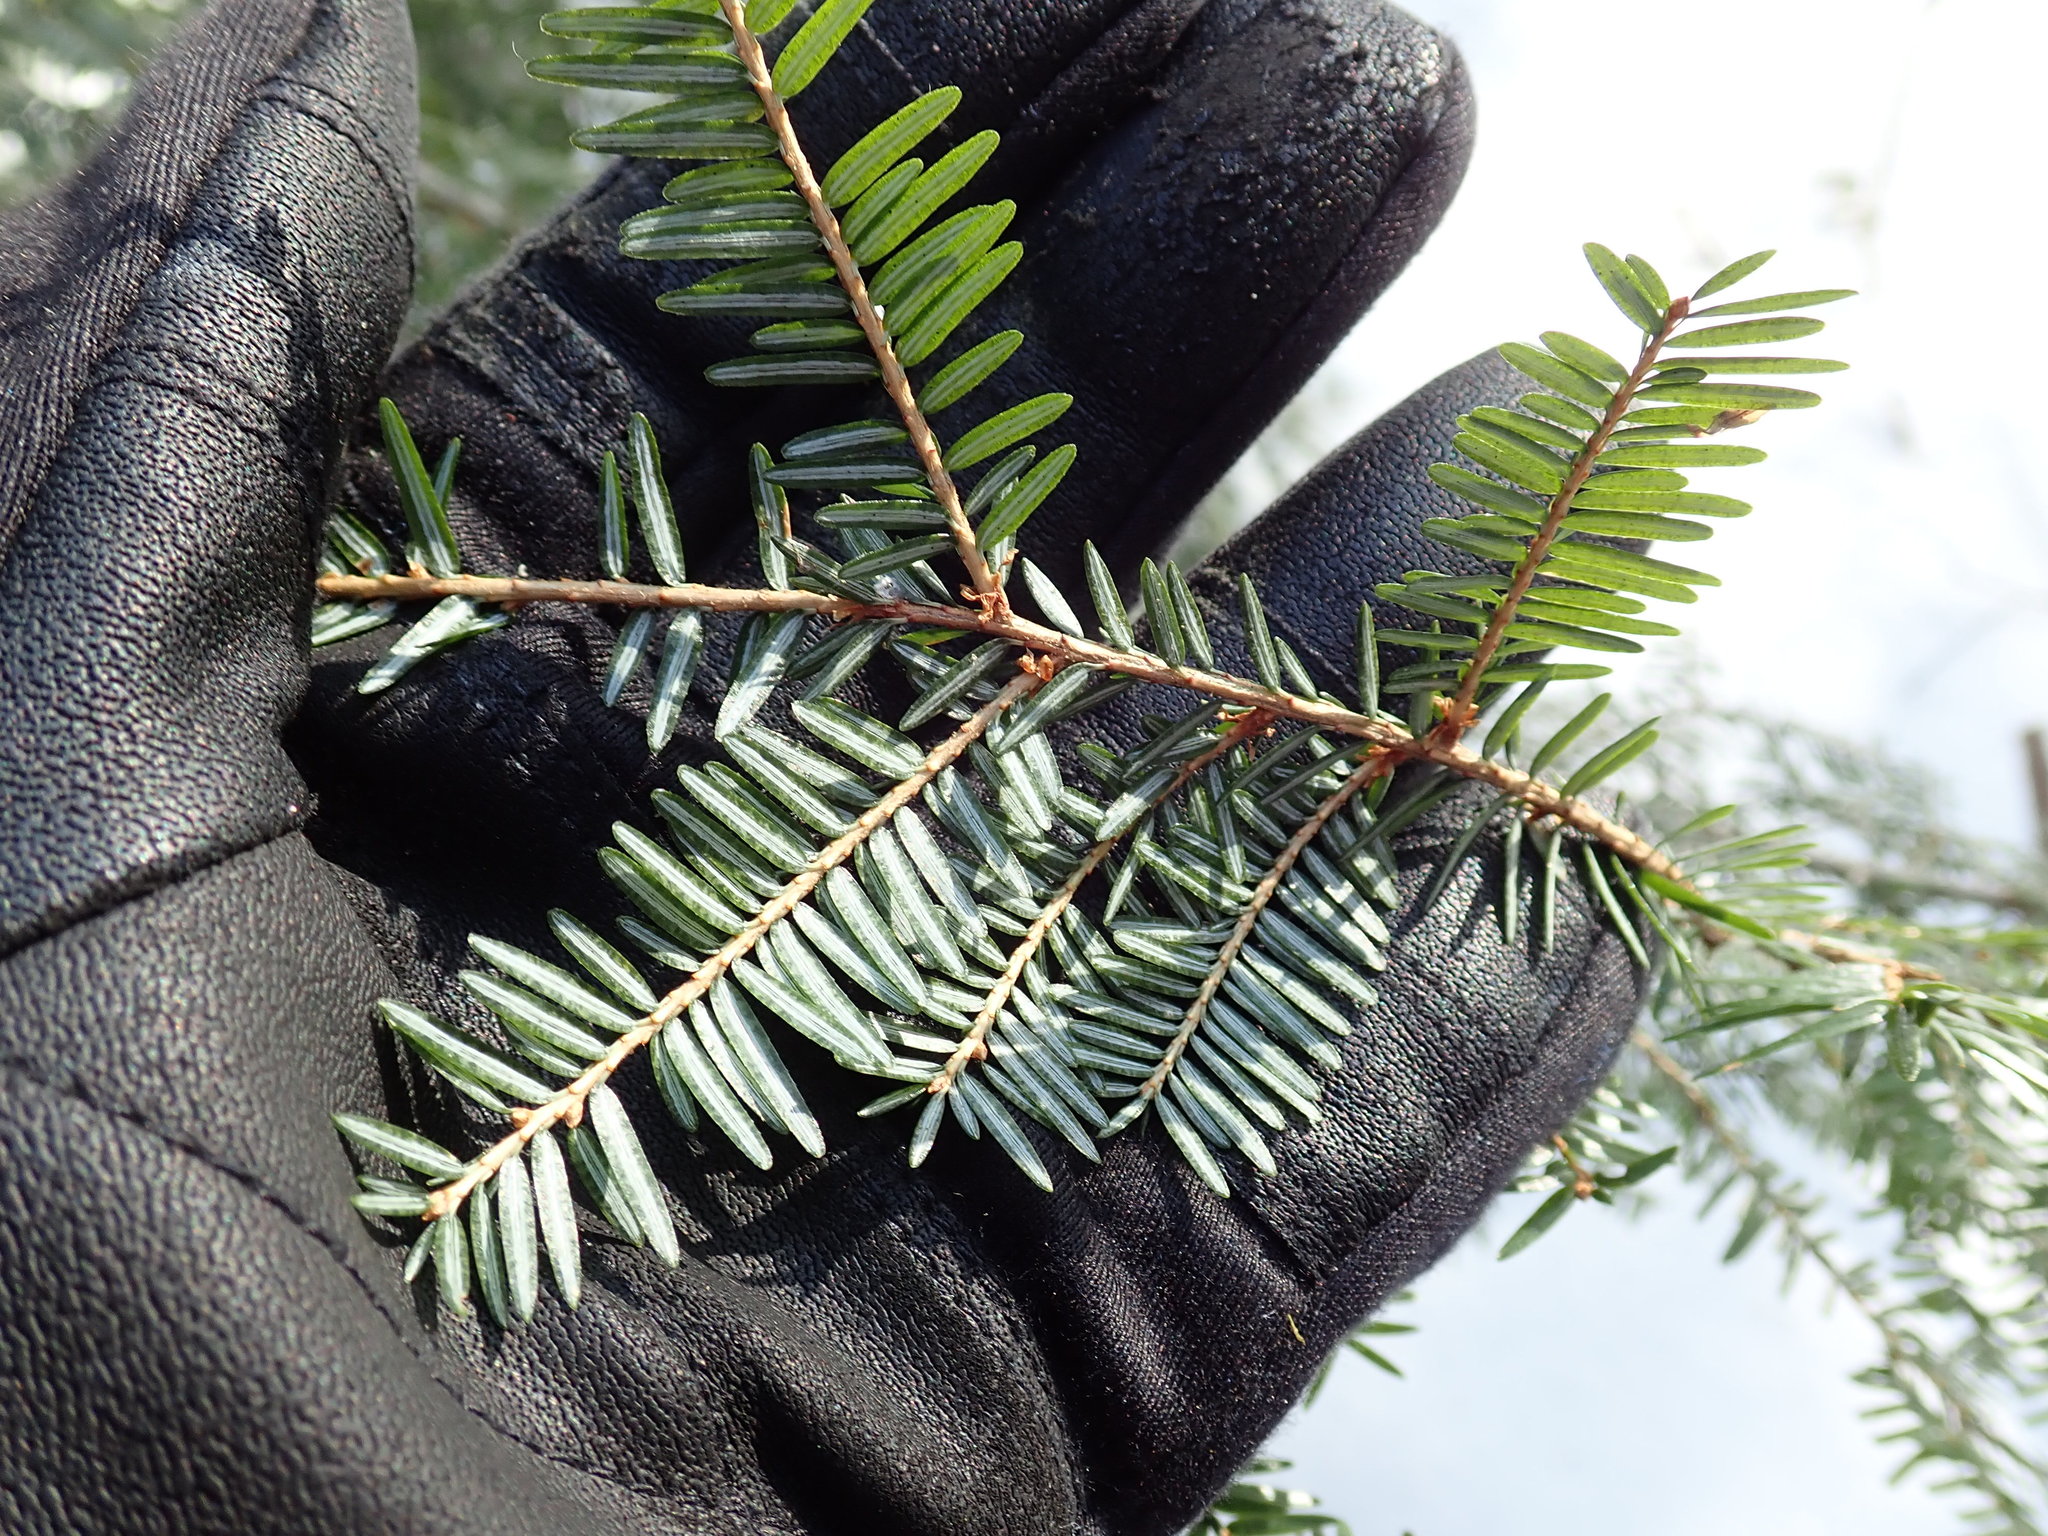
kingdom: Plantae
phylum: Tracheophyta
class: Pinopsida
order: Pinales
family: Pinaceae
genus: Tsuga
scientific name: Tsuga canadensis
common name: Eastern hemlock
